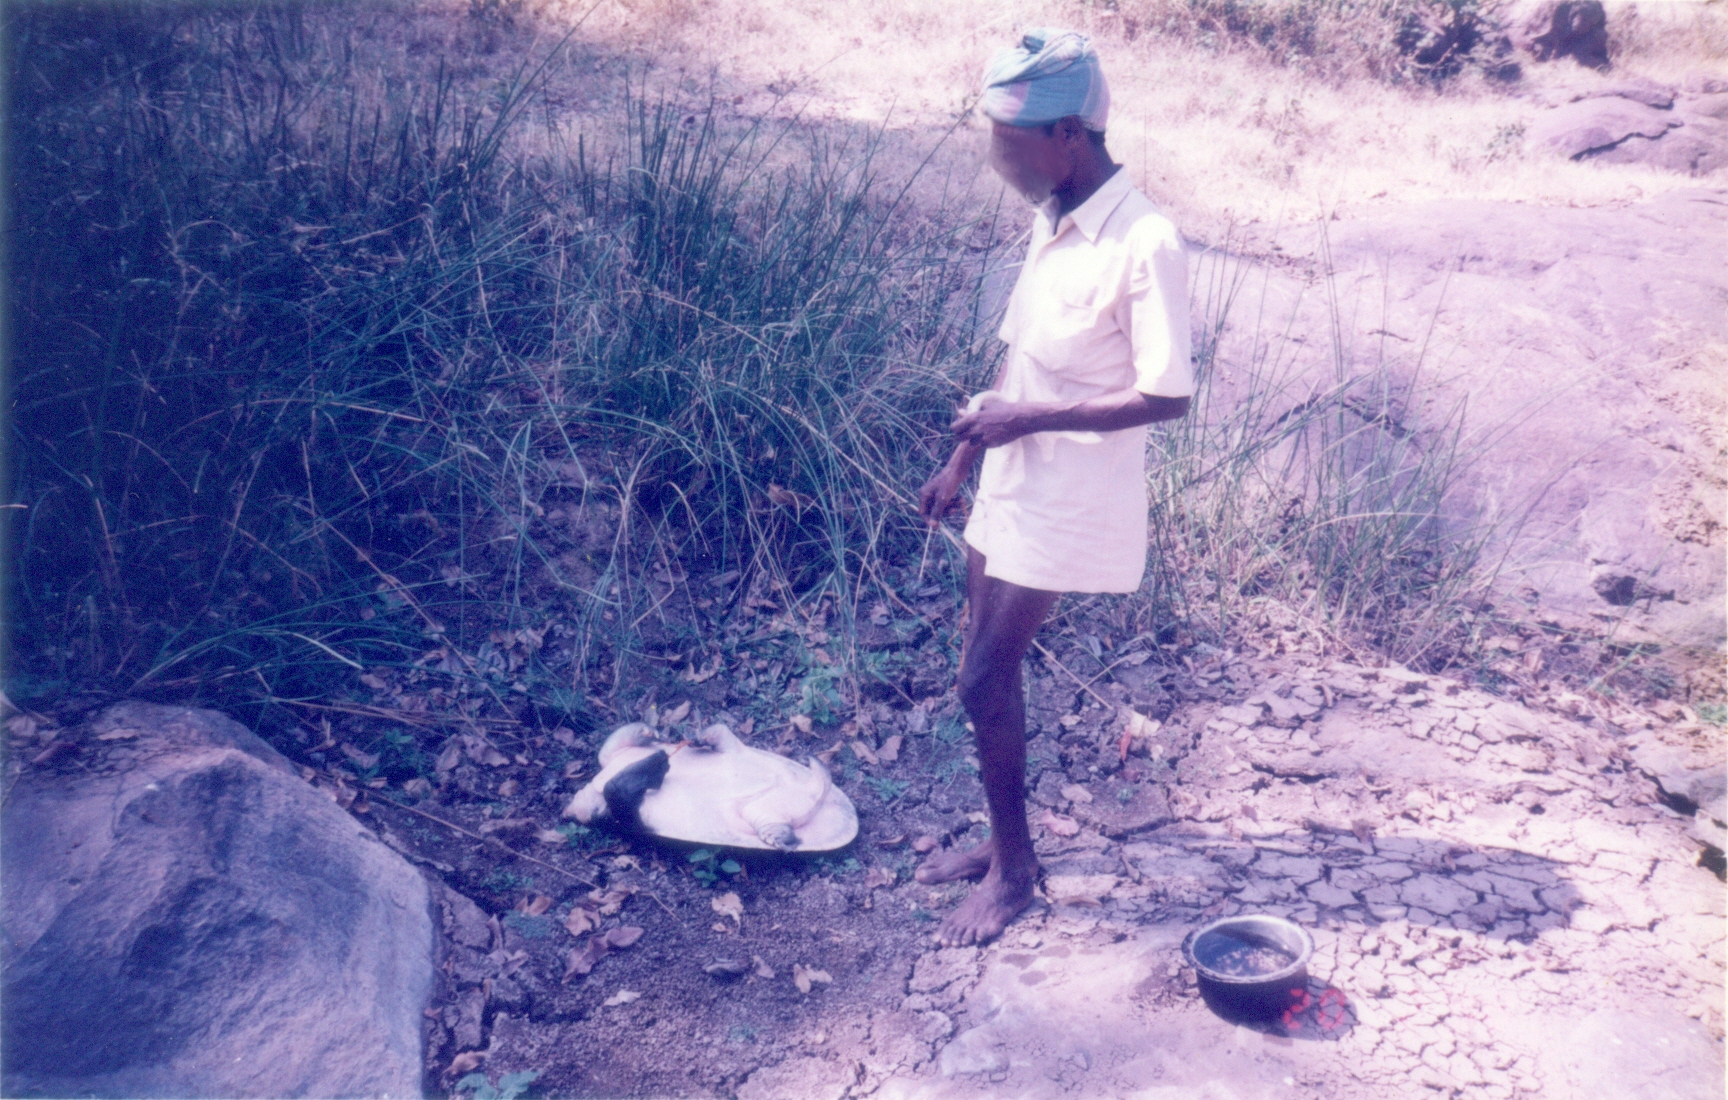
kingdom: Animalia
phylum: Chordata
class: Testudines
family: Trionychidae
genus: Nilssonia
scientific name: Nilssonia leithii
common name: Leiths softshell turtle
